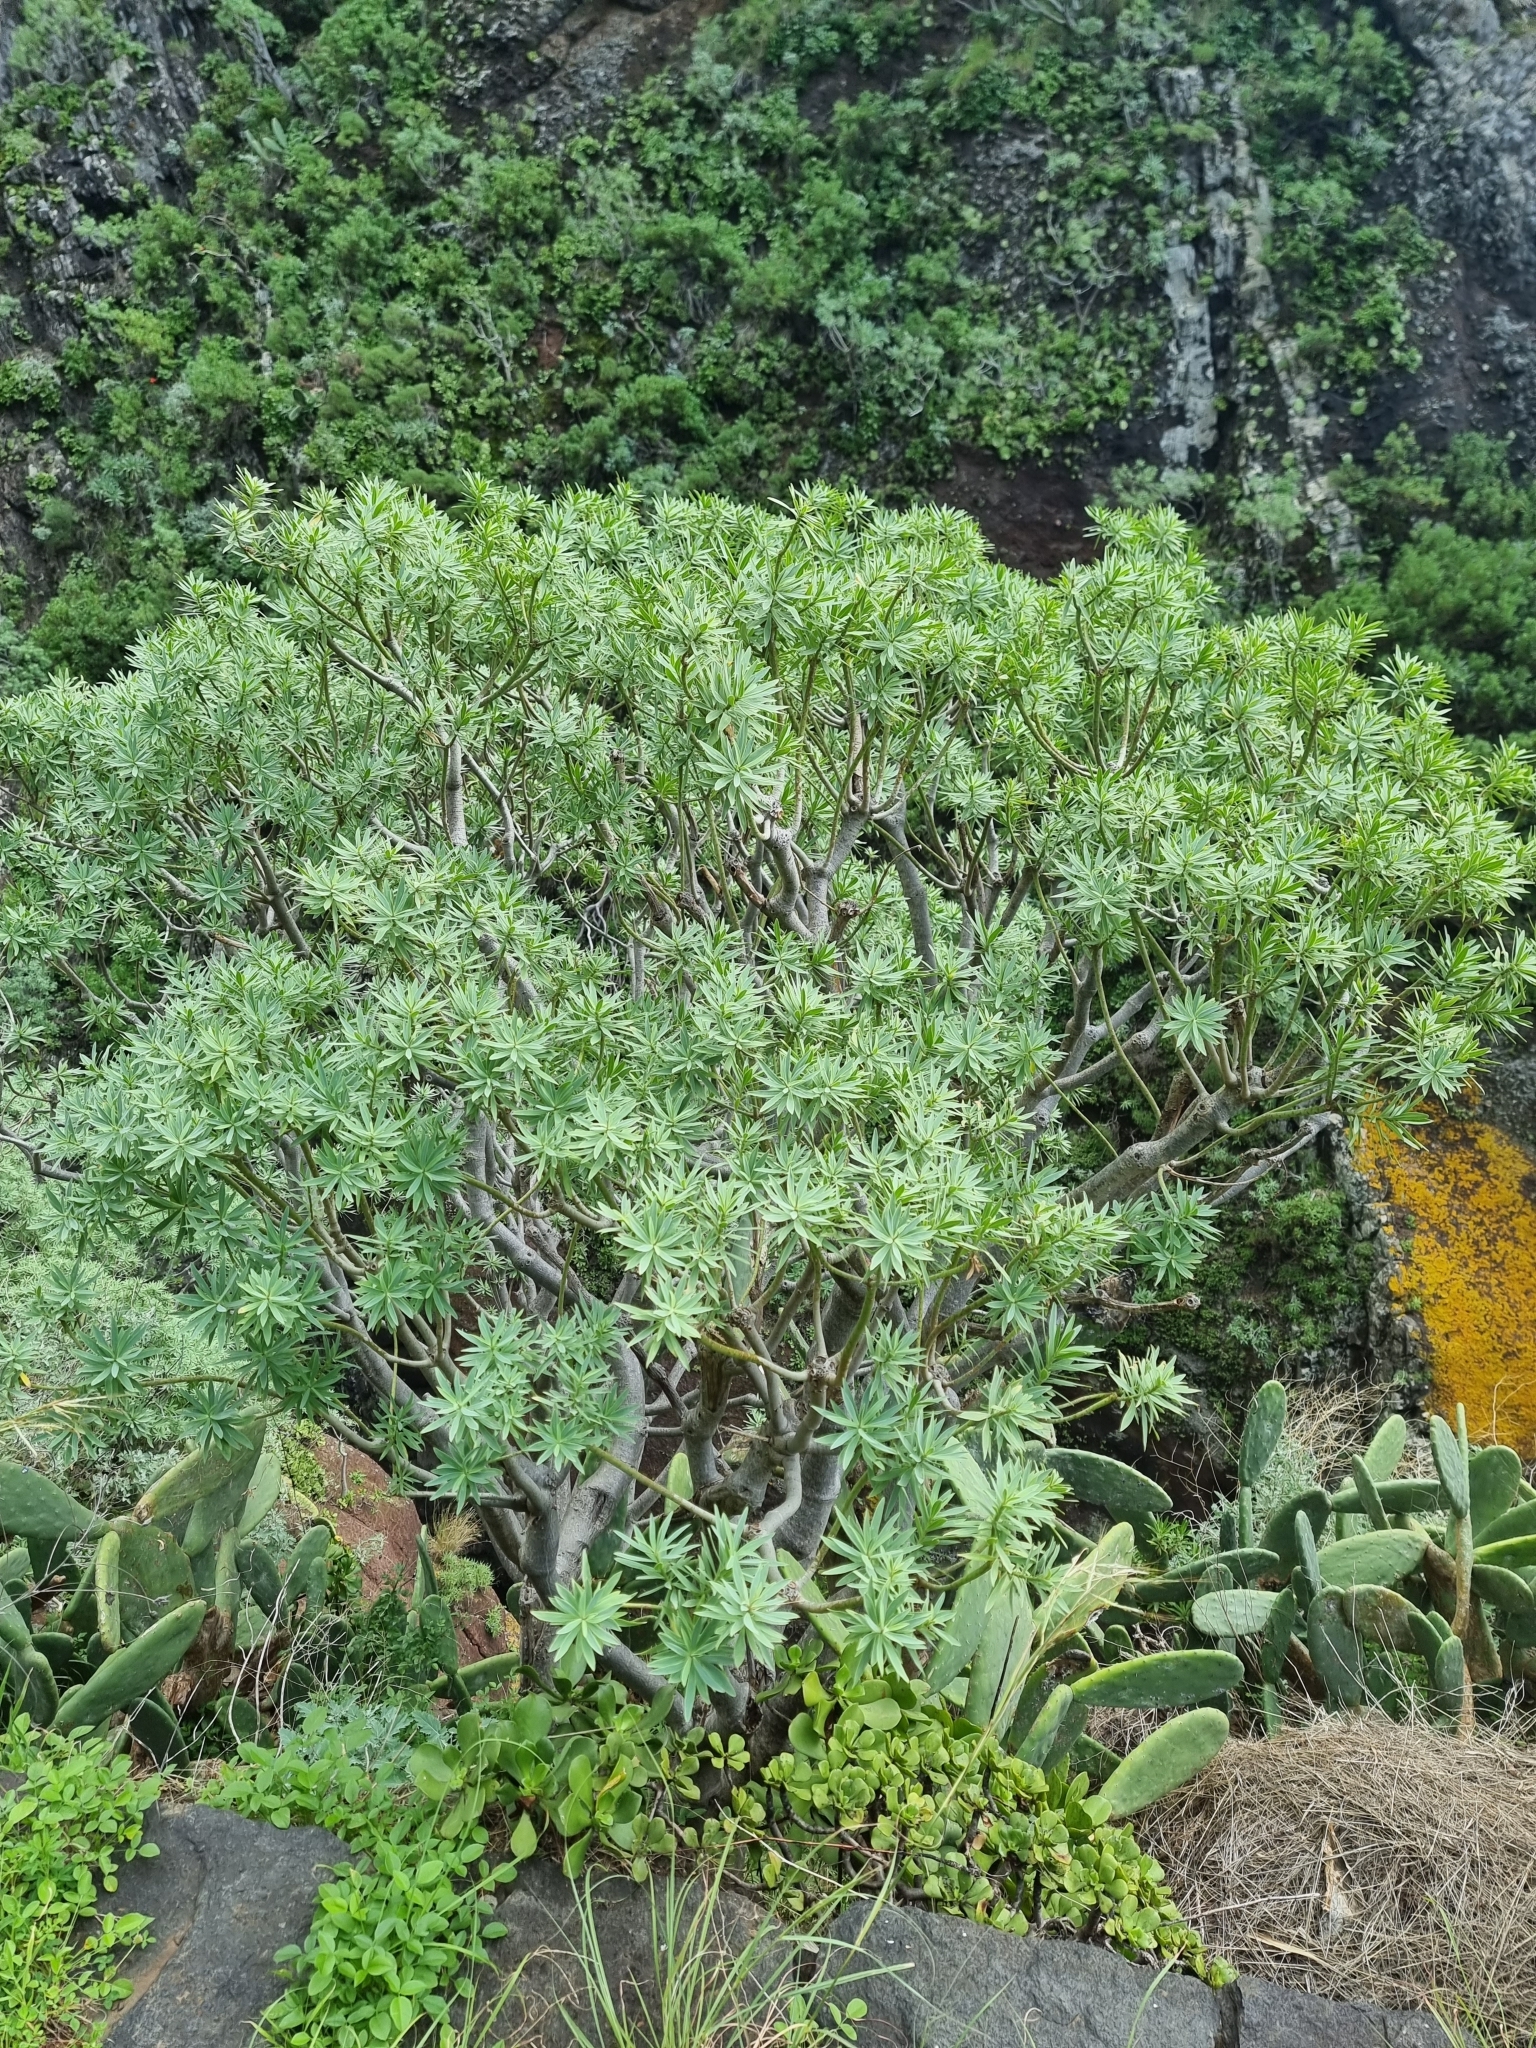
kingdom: Plantae
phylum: Tracheophyta
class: Magnoliopsida
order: Malpighiales
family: Euphorbiaceae
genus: Euphorbia
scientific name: Euphorbia piscatoria
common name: Fish-stunning spurge
